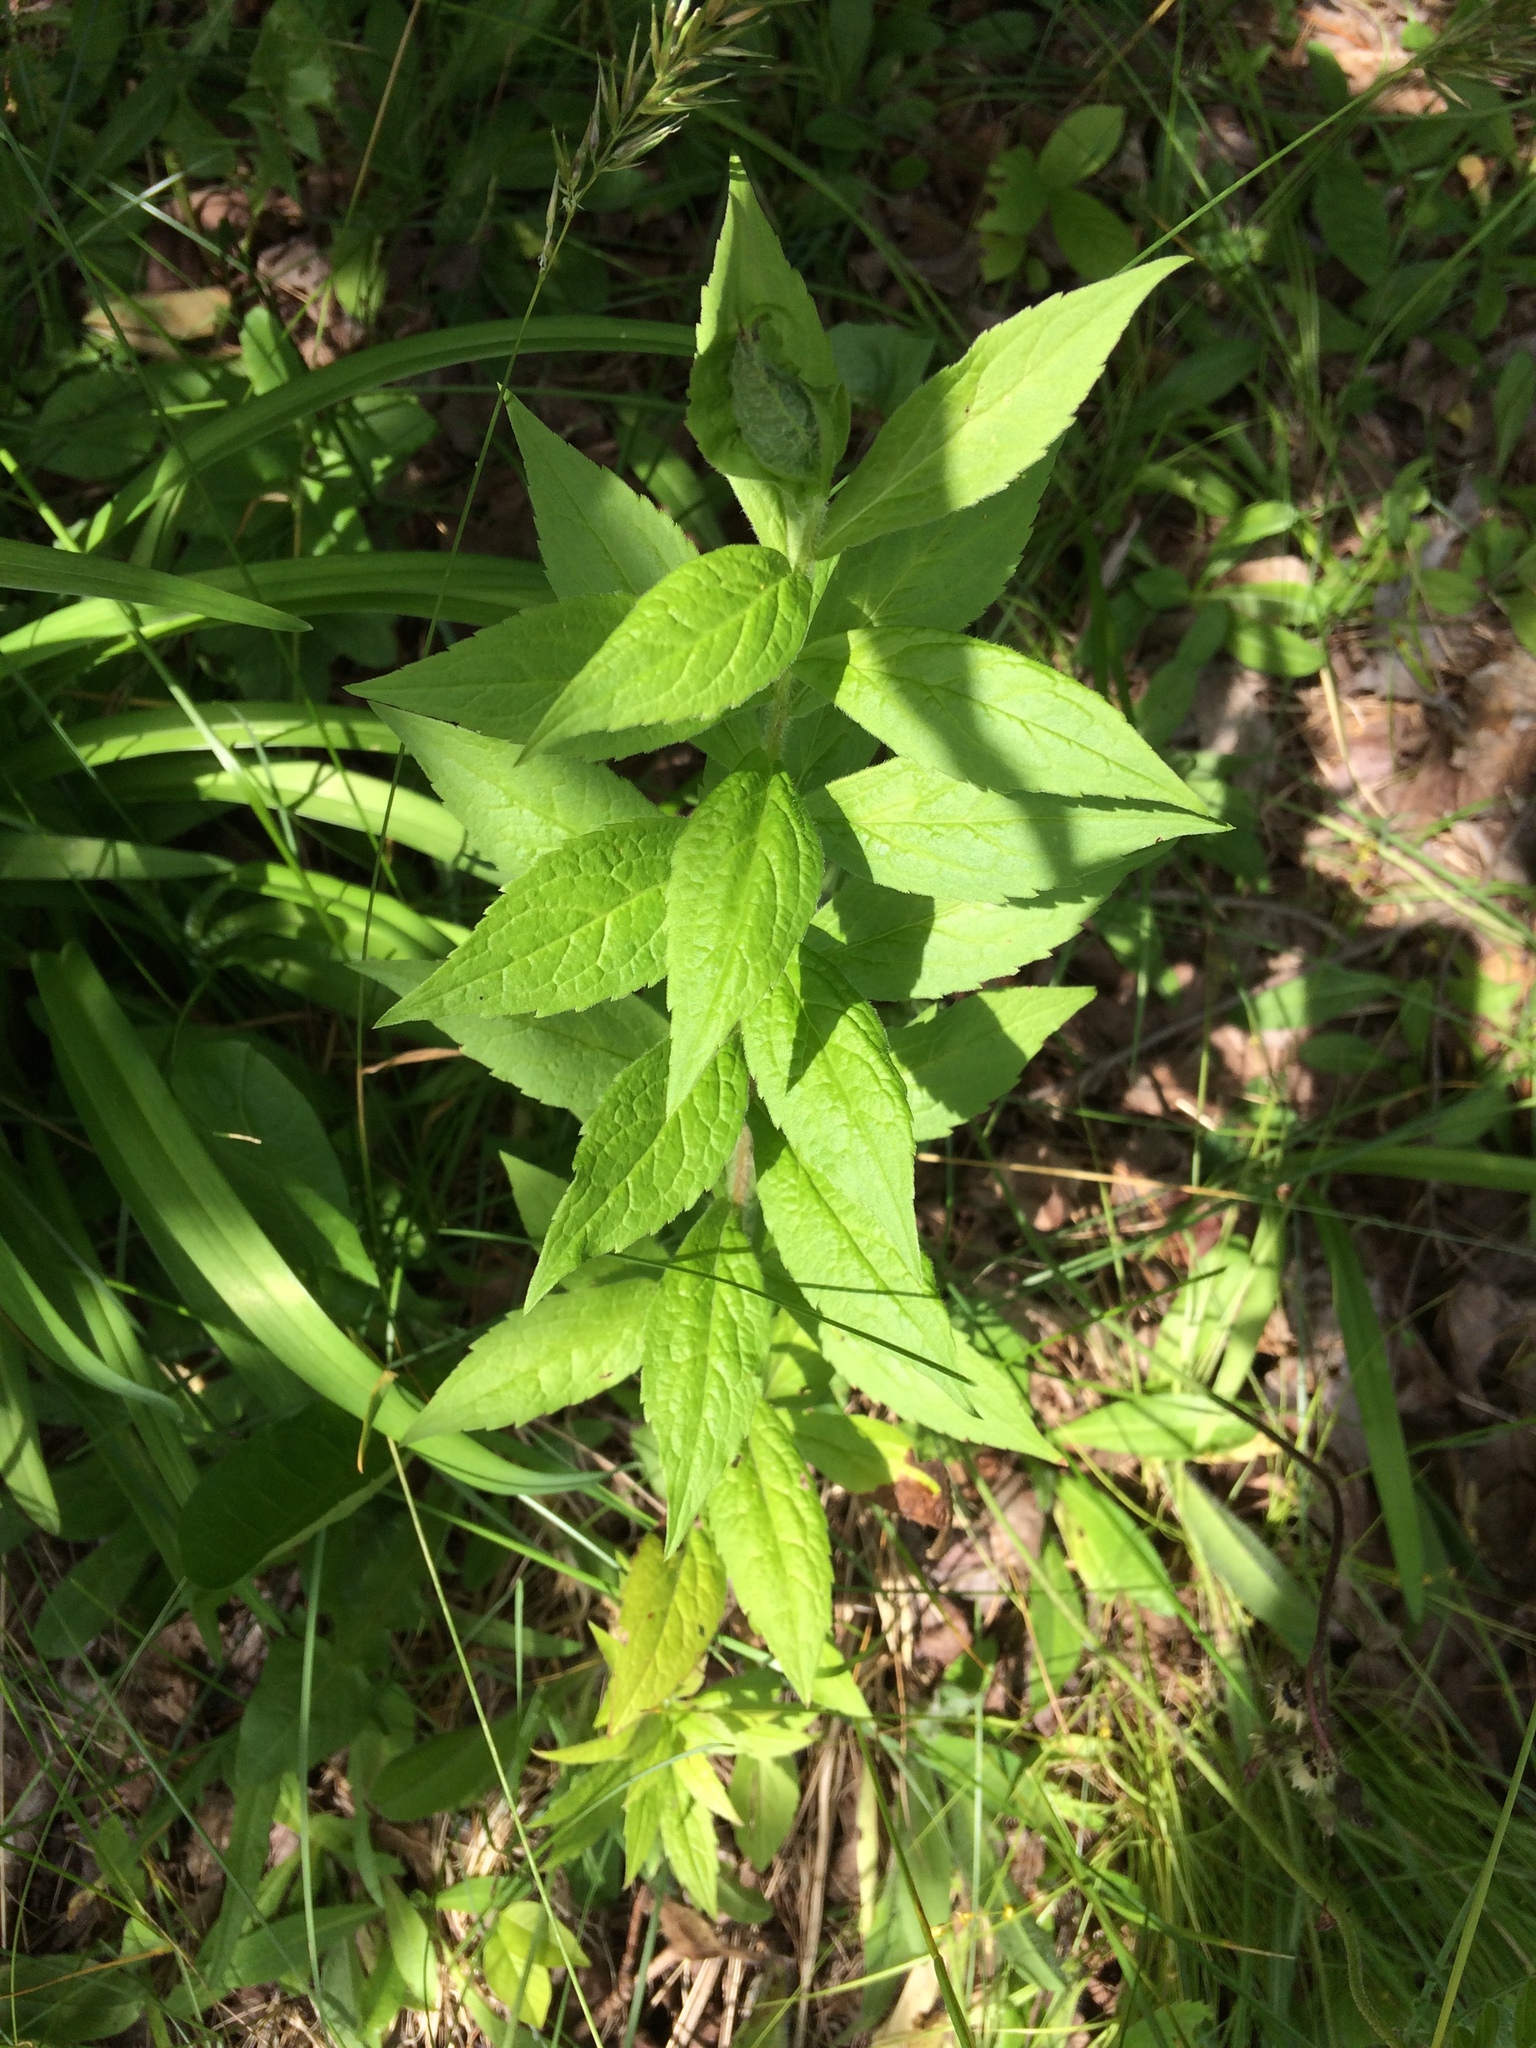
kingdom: Plantae
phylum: Tracheophyta
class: Magnoliopsida
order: Asterales
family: Asteraceae
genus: Solidago
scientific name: Solidago rugosa
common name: Rough-stemmed goldenrod
